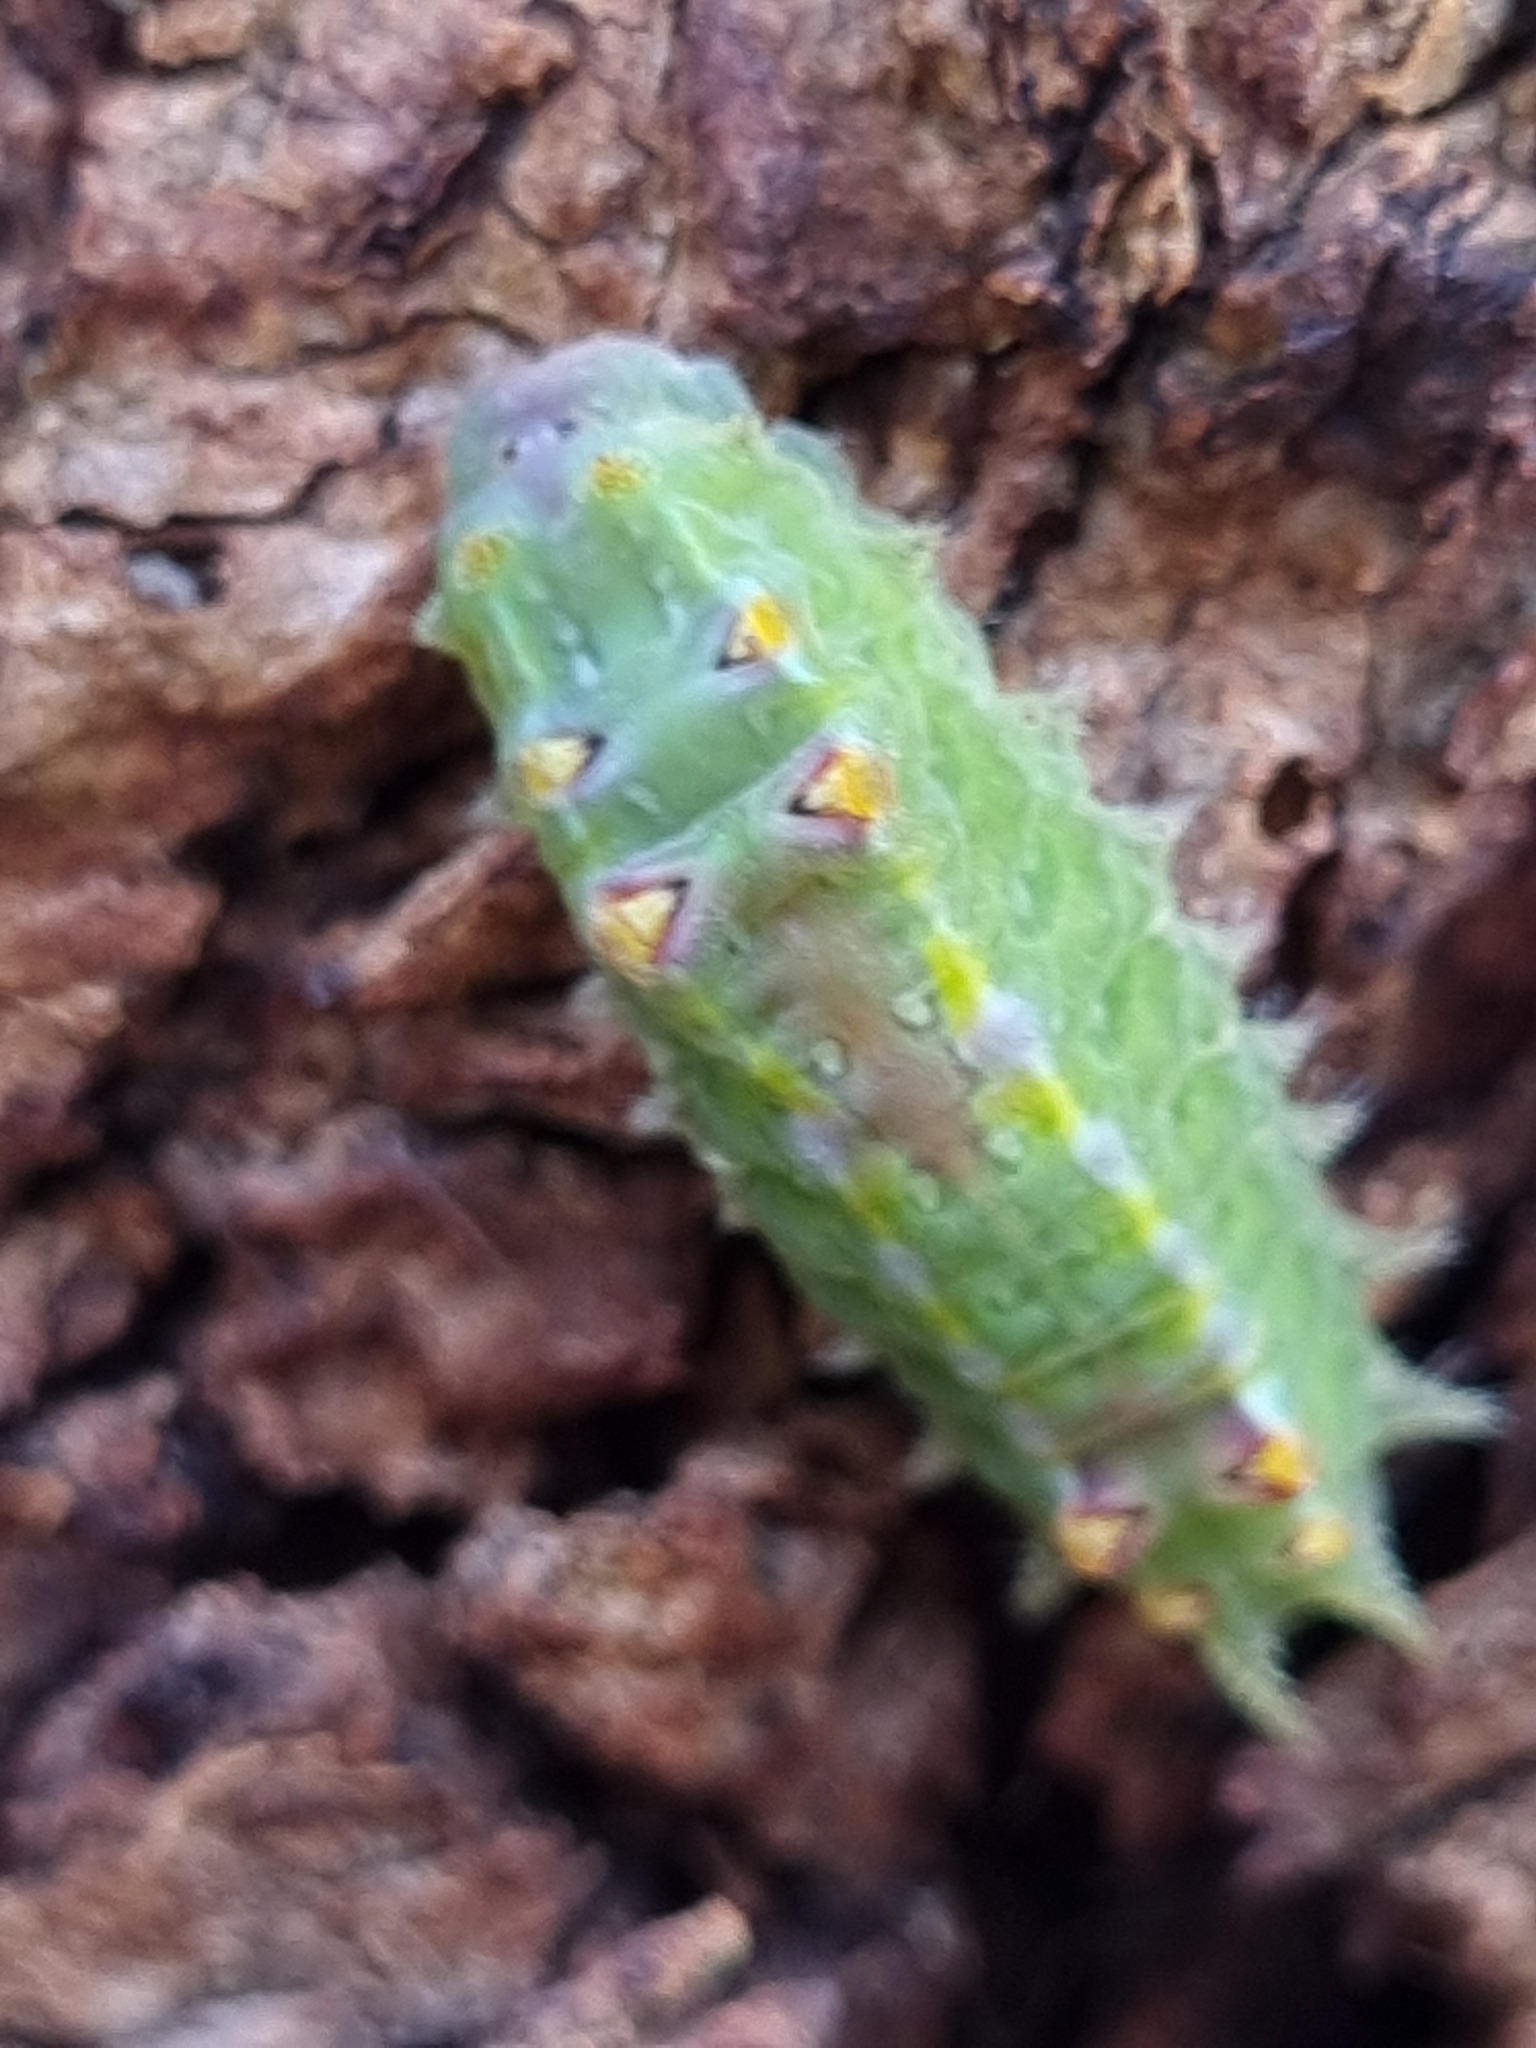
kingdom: Animalia
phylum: Arthropoda
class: Insecta
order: Lepidoptera
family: Limacodidae
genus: Doratifera
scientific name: Doratifera pinguis
